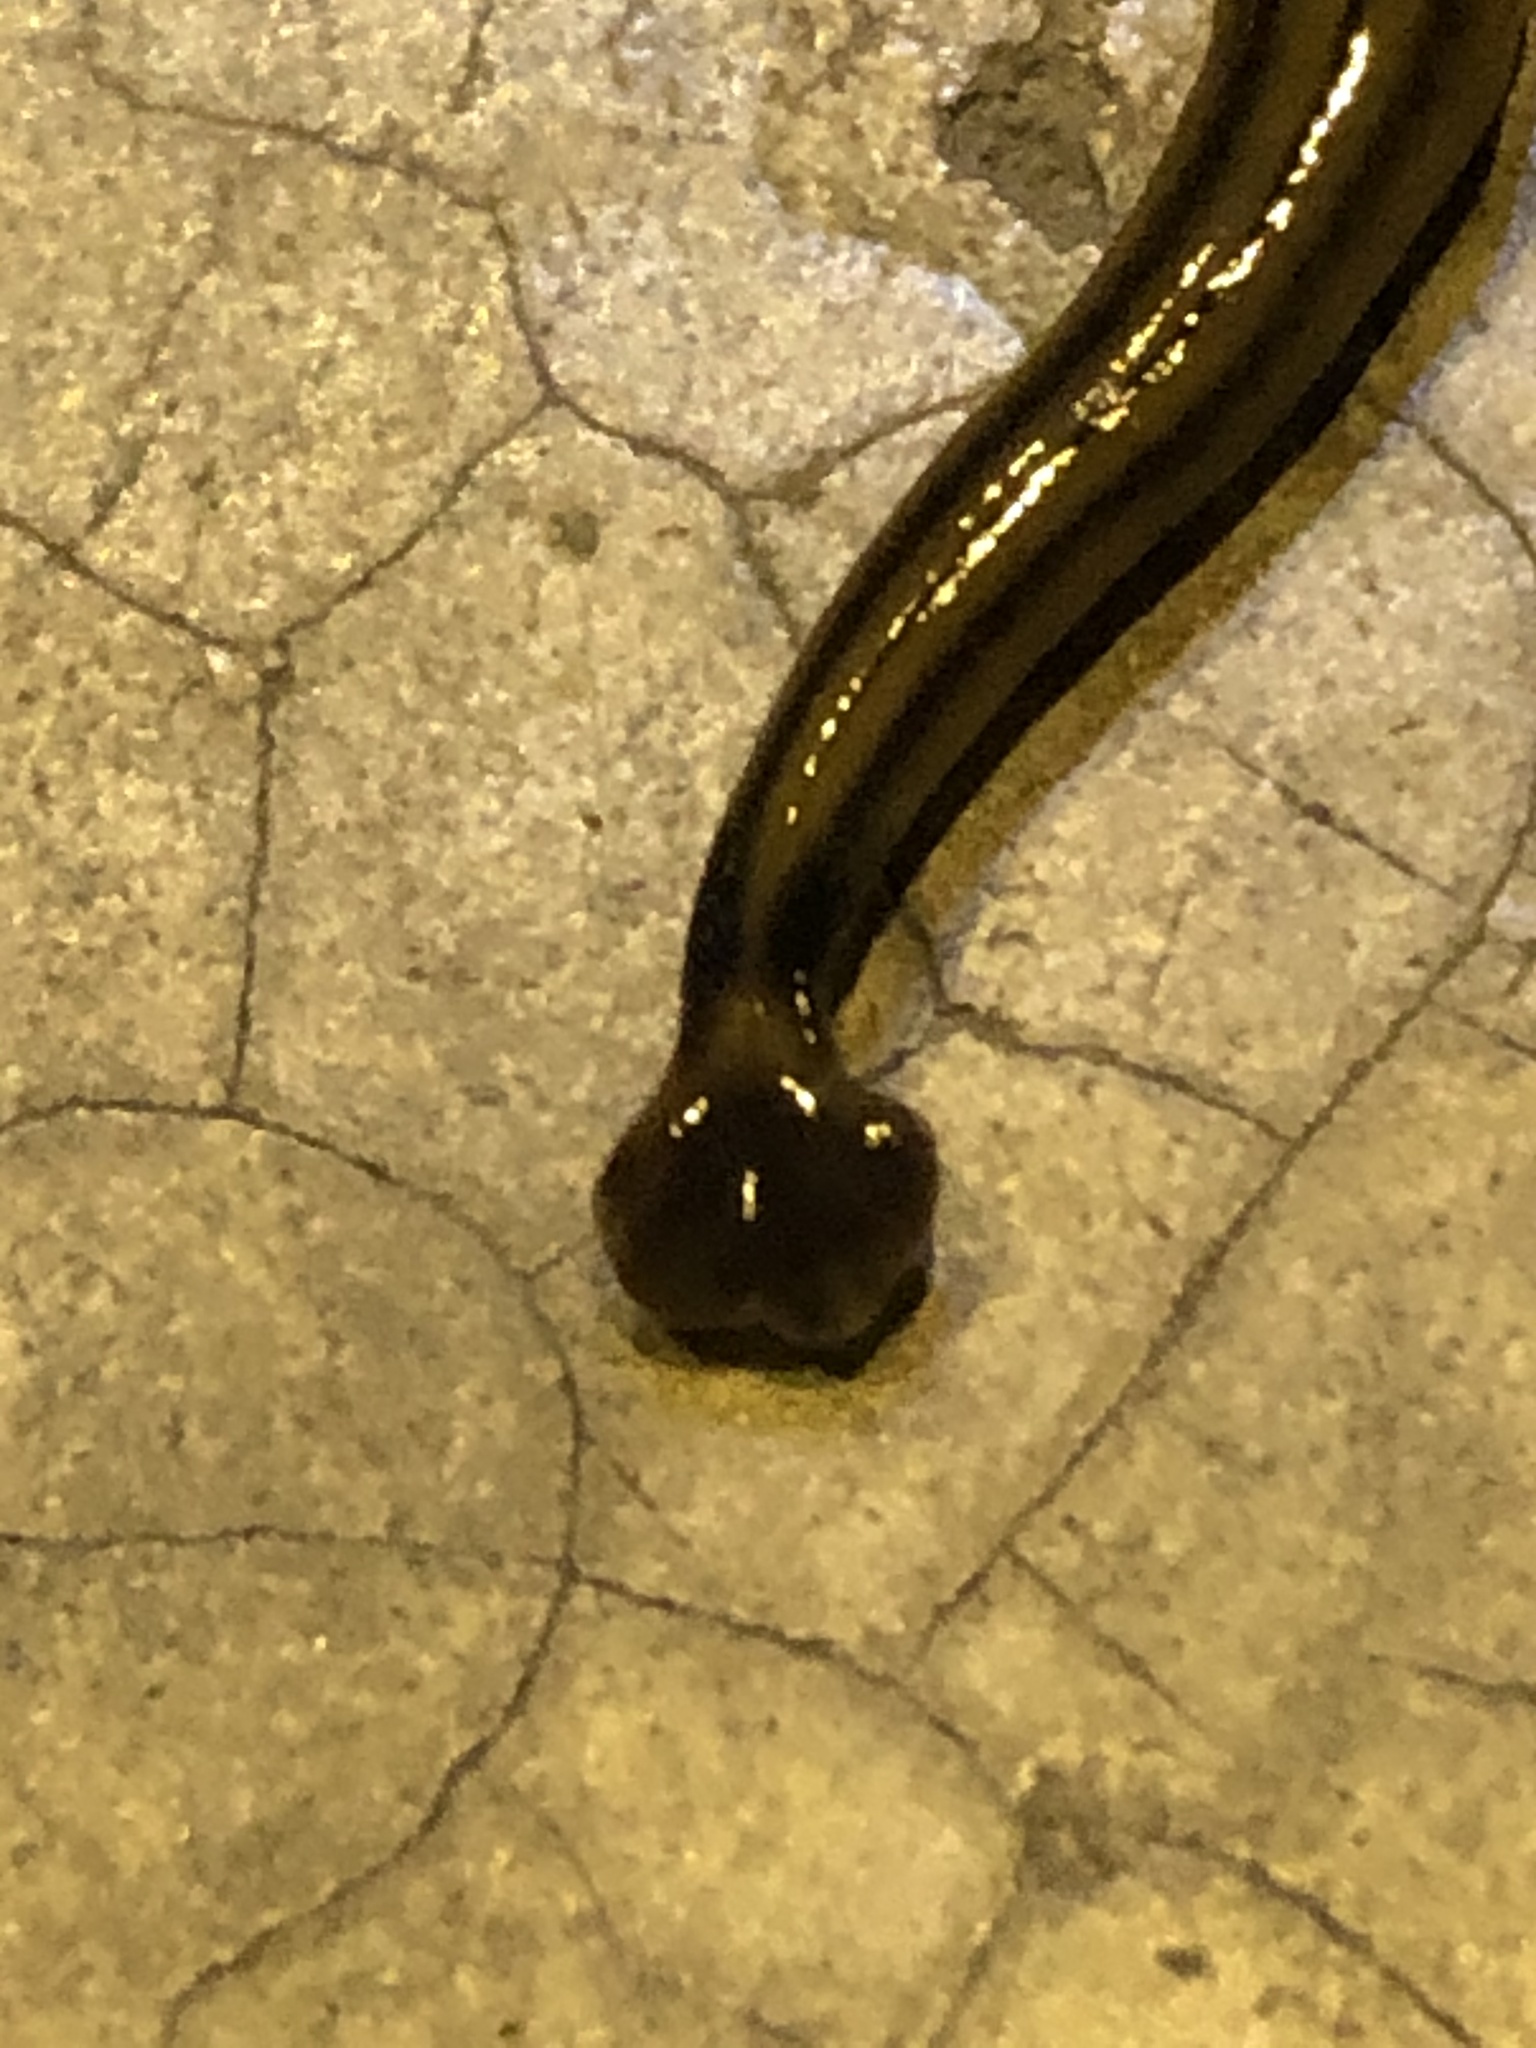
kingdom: Animalia
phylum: Platyhelminthes
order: Tricladida
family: Geoplanidae
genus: Bipalium
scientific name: Bipalium kewense
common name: Hammerhead flatworm
